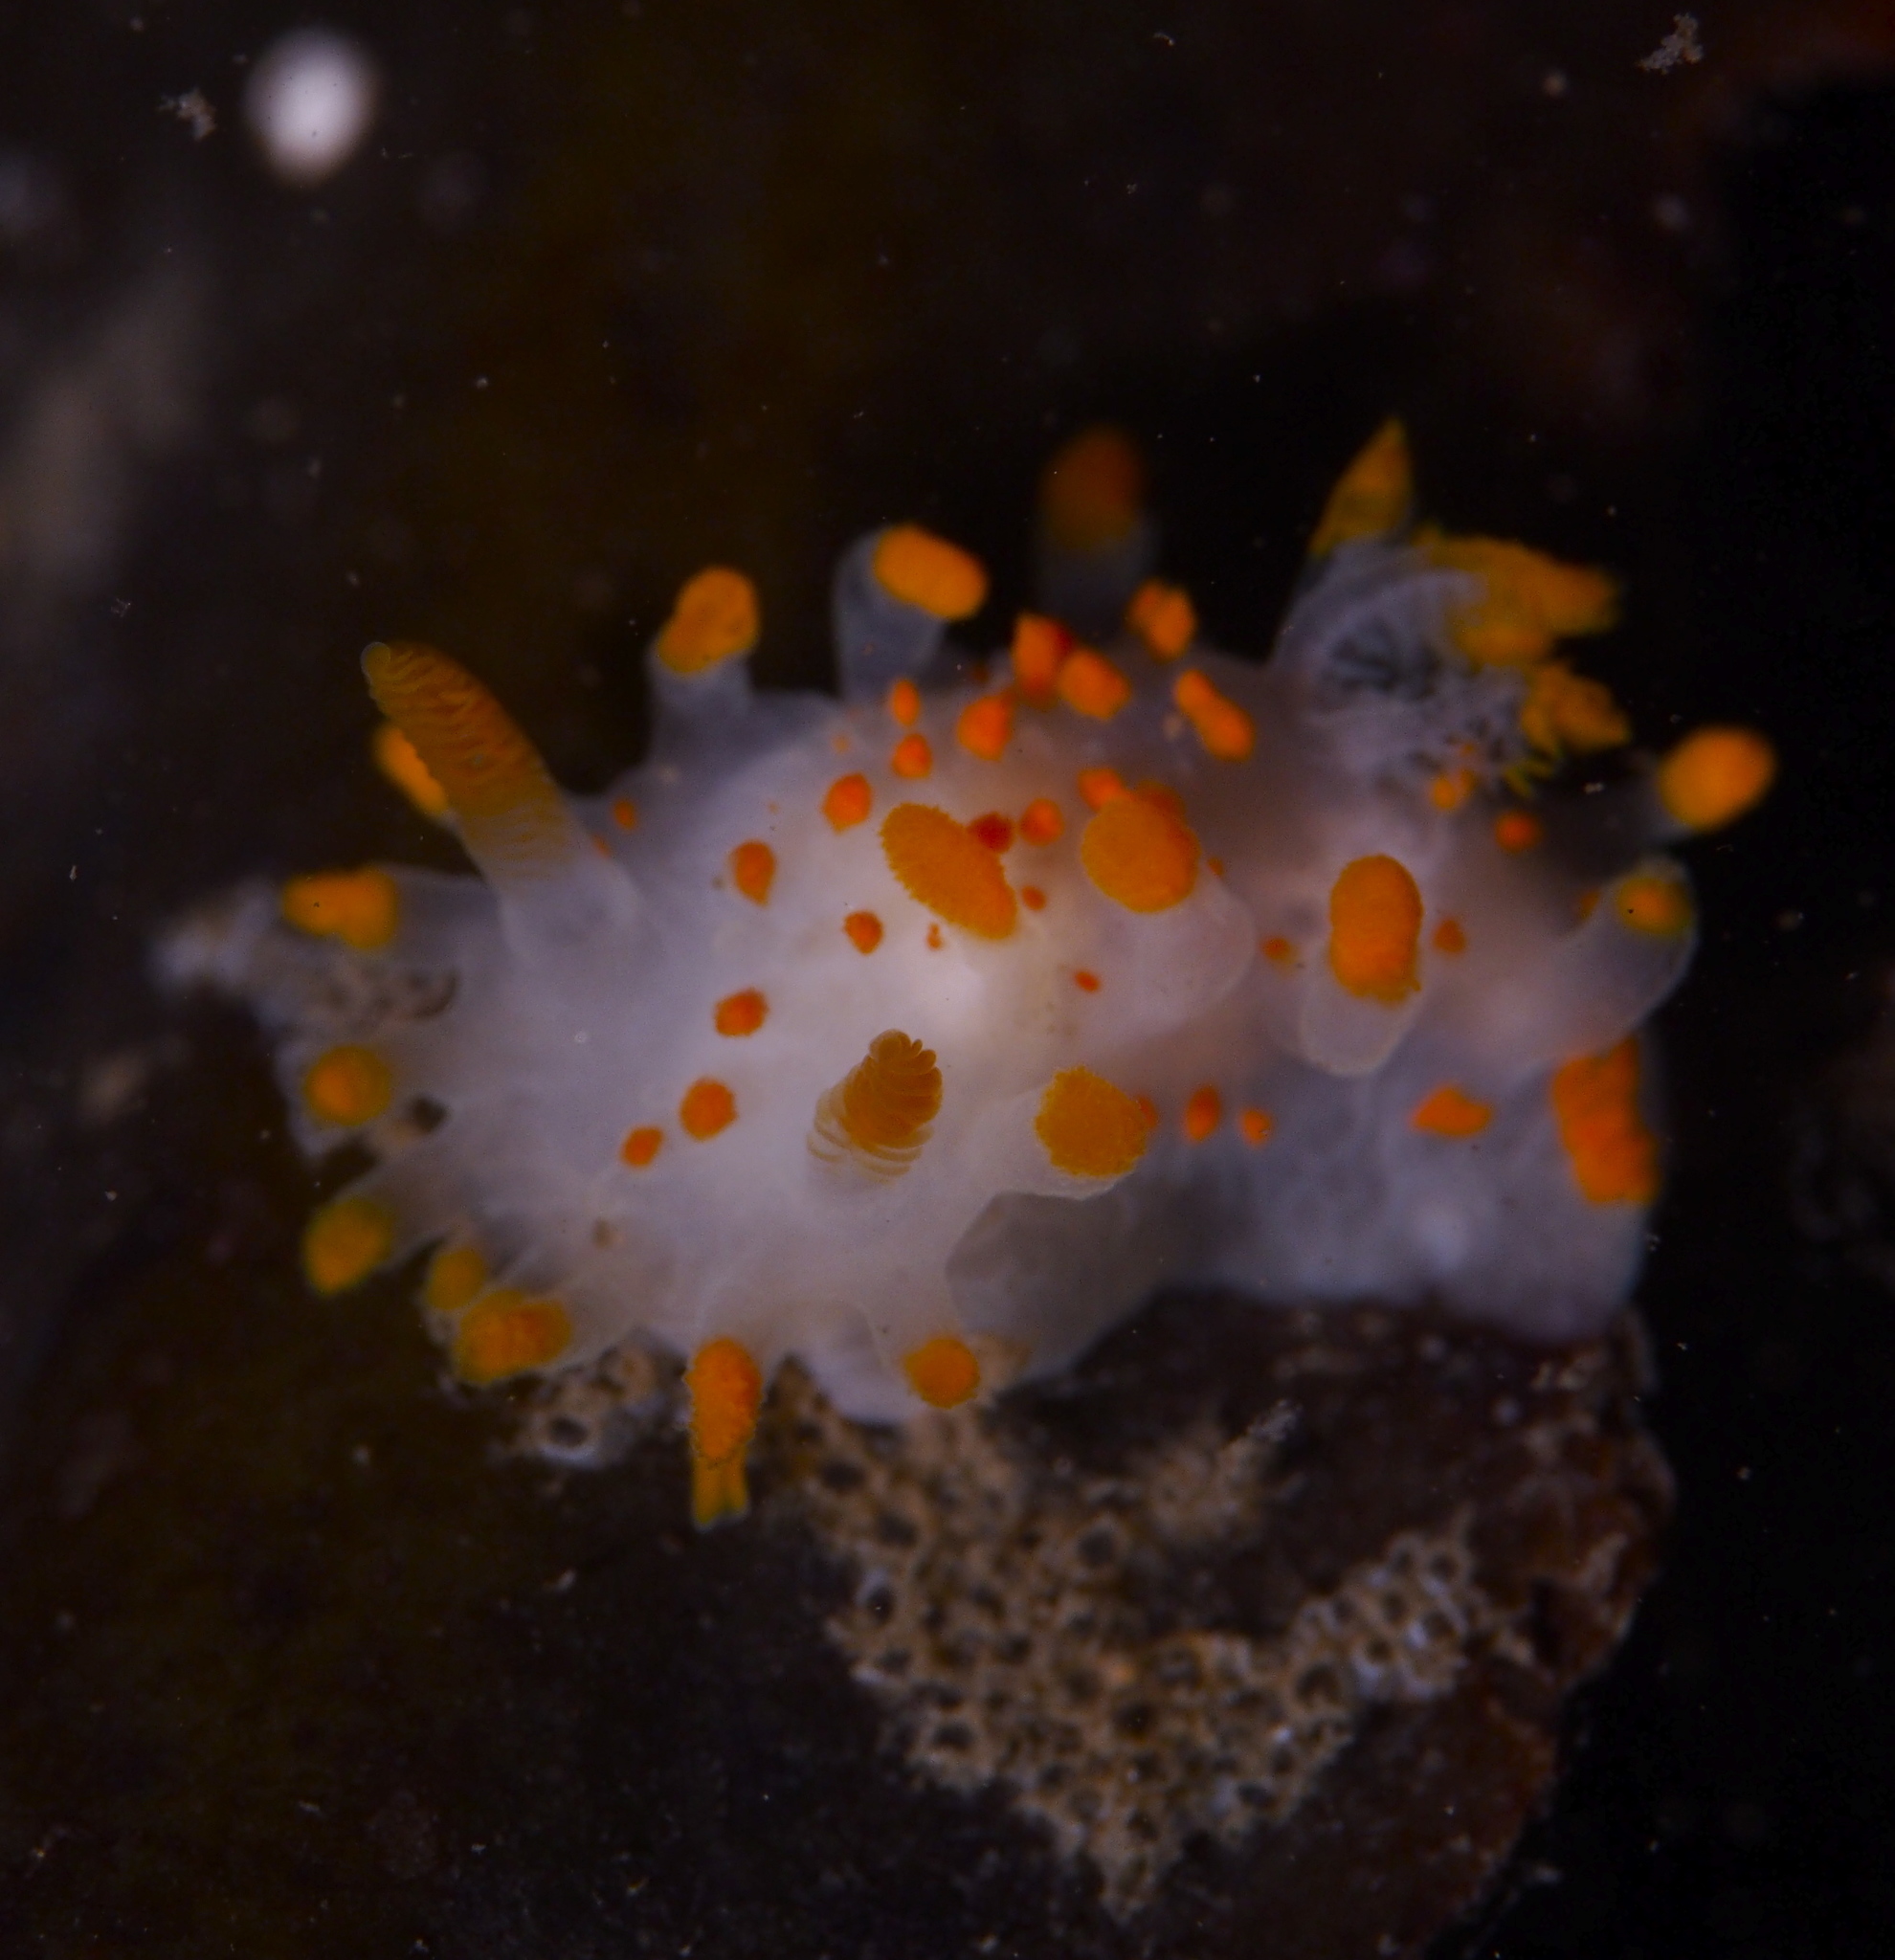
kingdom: Animalia
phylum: Mollusca
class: Gastropoda
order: Nudibranchia
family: Polyceridae
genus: Limacia
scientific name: Limacia clavigera
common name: Orange-clubbed sea slug
